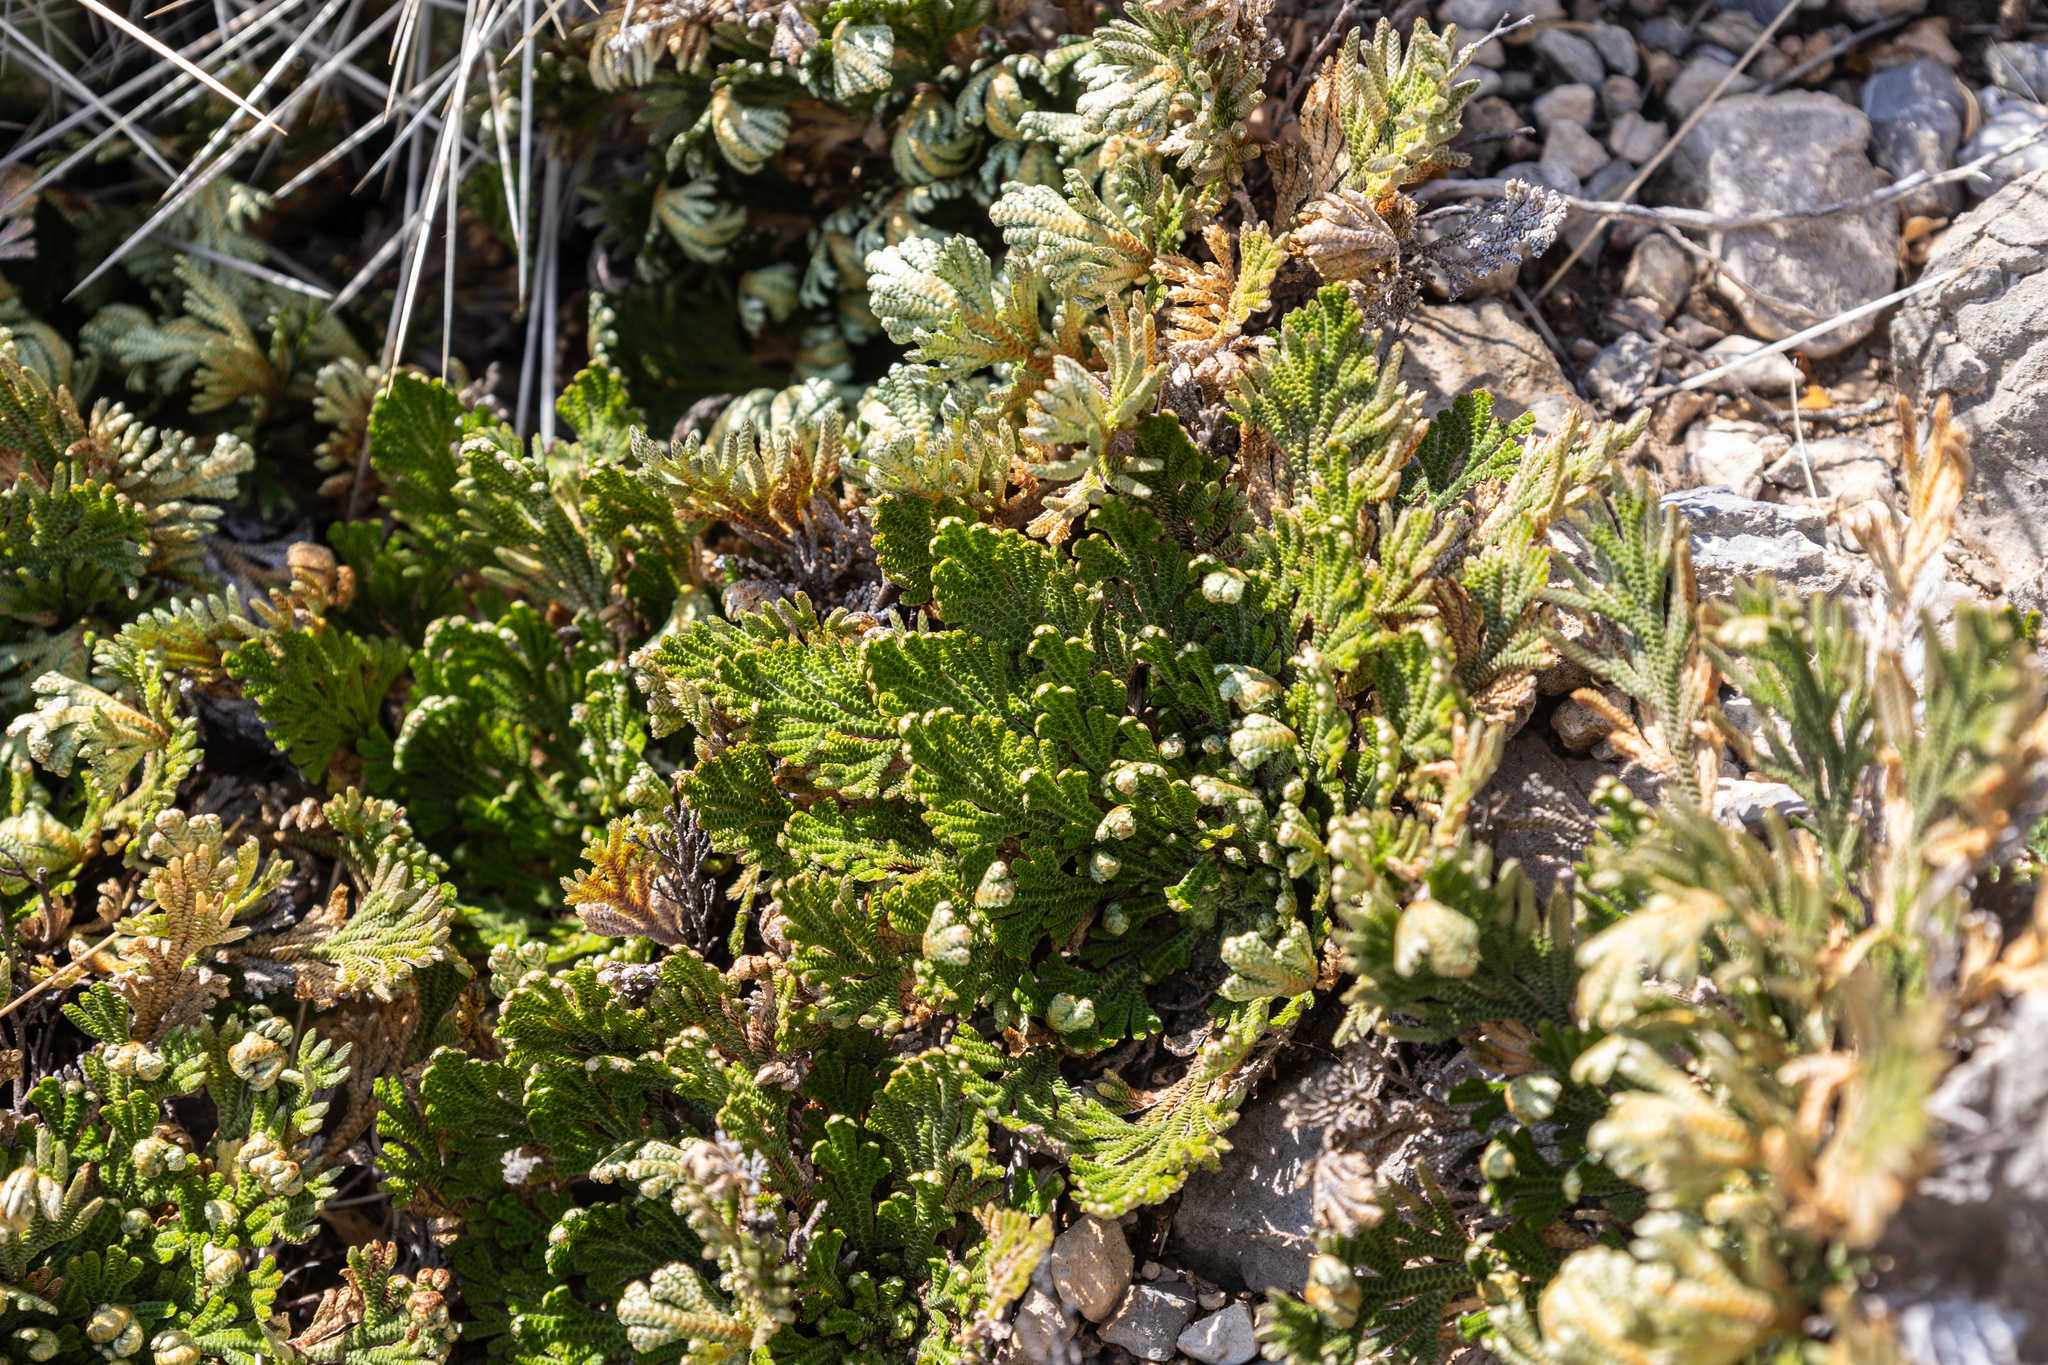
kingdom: Plantae
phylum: Tracheophyta
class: Lycopodiopsida
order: Selaginellales
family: Selaginellaceae
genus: Selaginella
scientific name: Selaginella lepidophylla
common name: Rose-of-jericho
